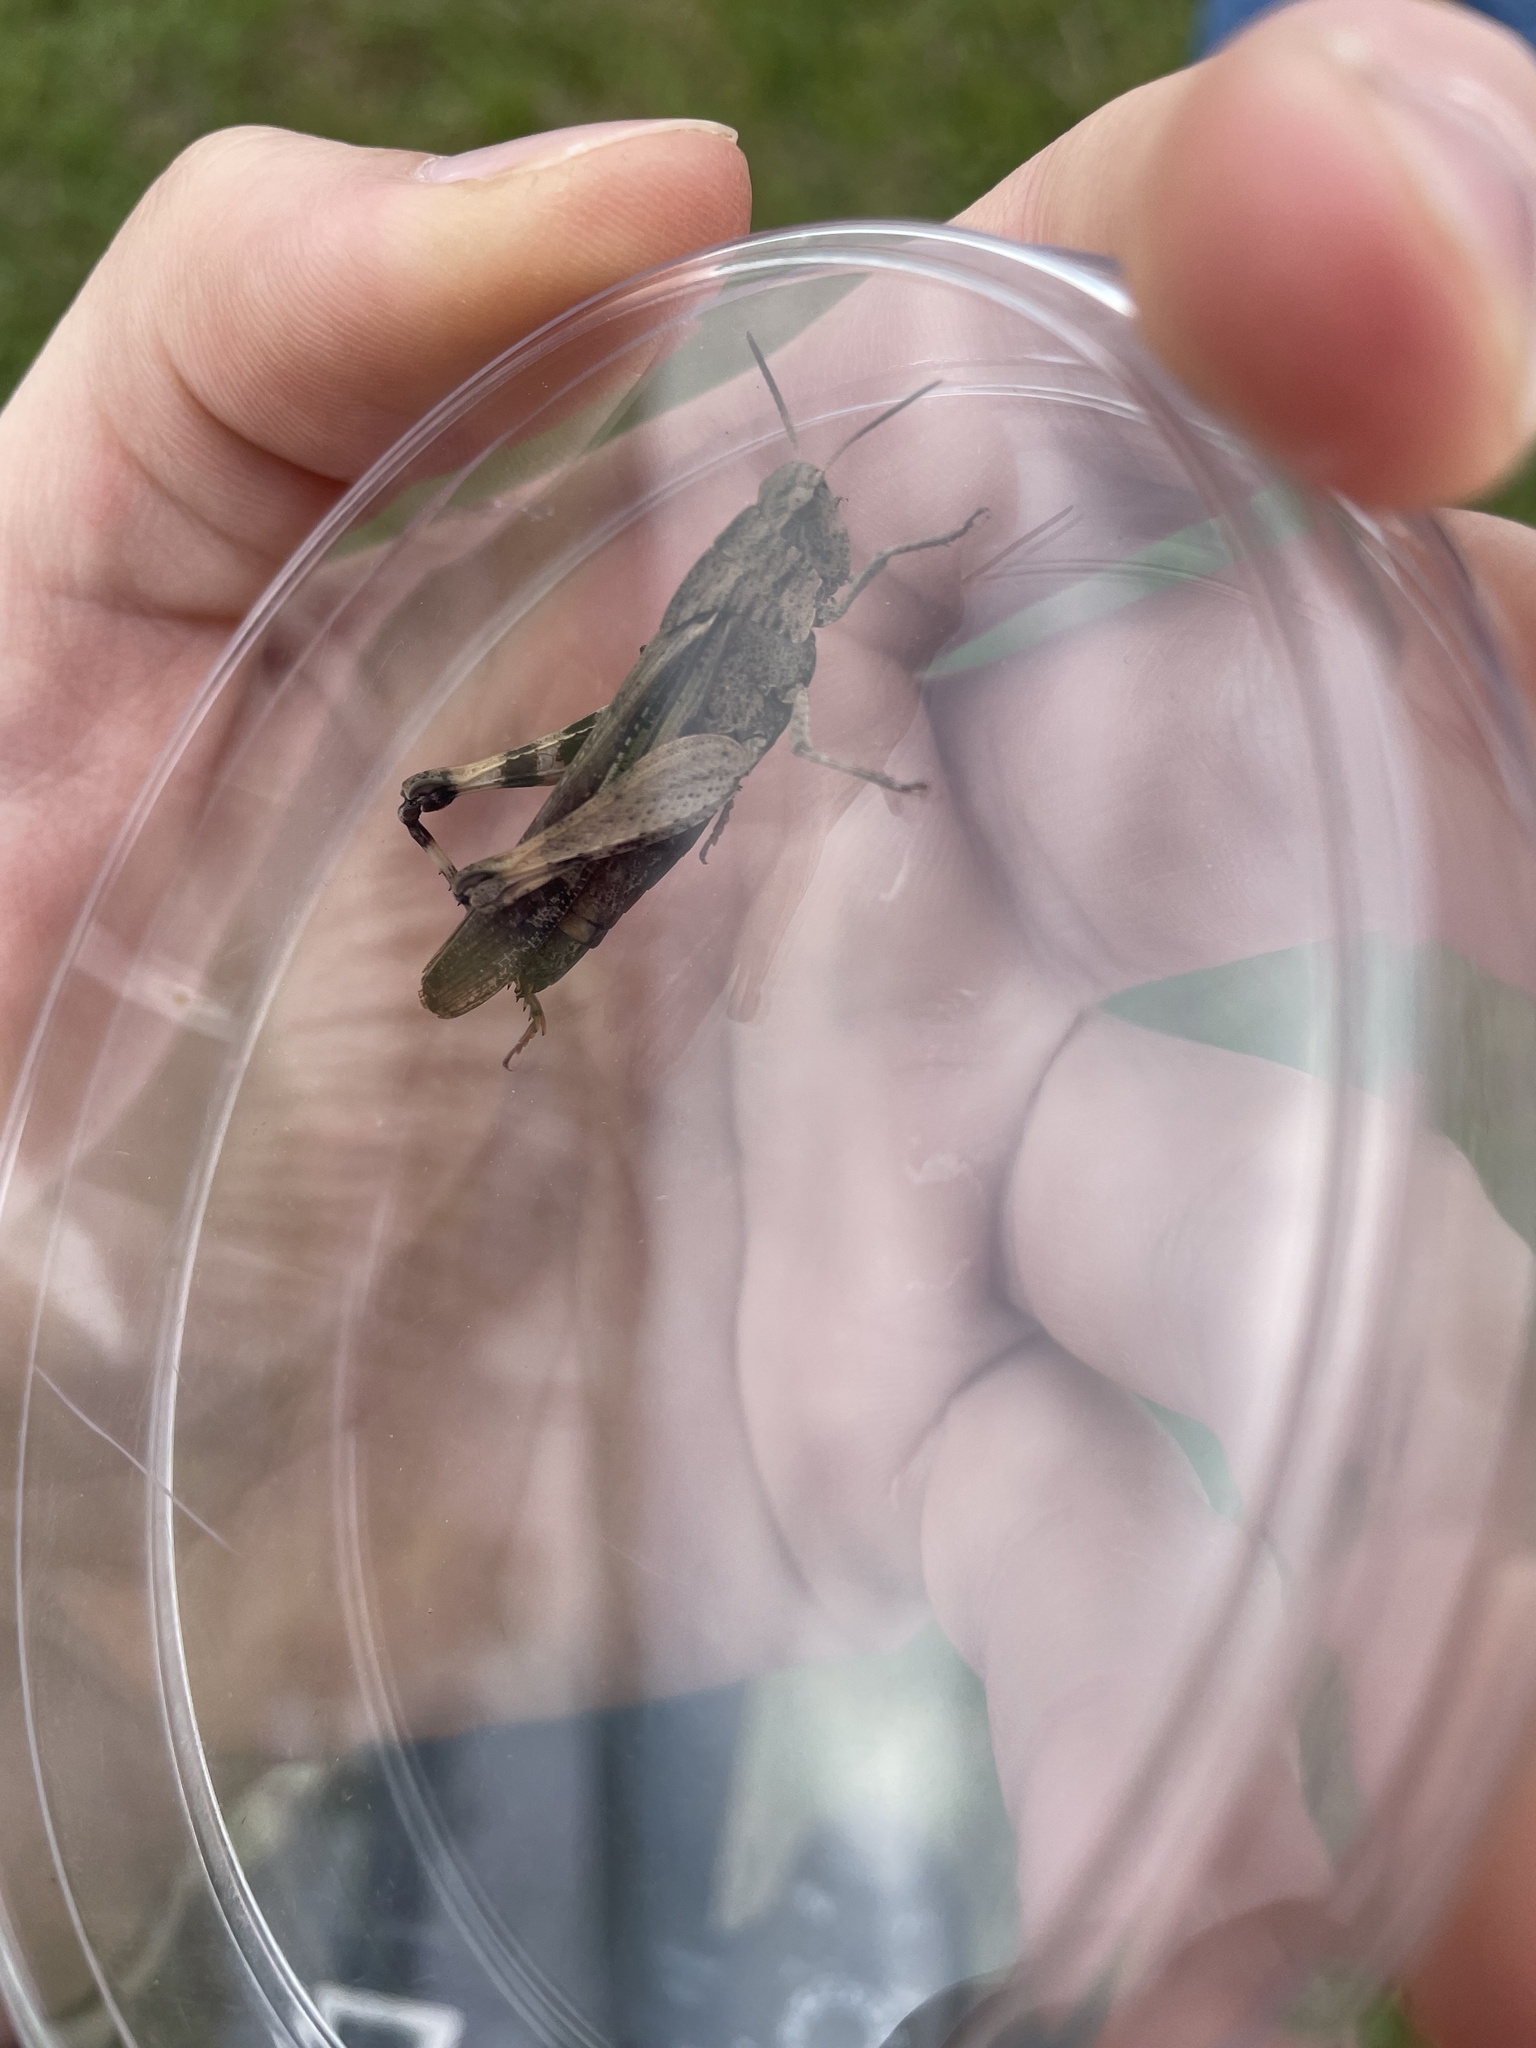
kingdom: Animalia
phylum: Arthropoda
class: Insecta
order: Orthoptera
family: Acrididae
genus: Chortophaga
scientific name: Chortophaga viridifasciata
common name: Green-striped grasshopper
